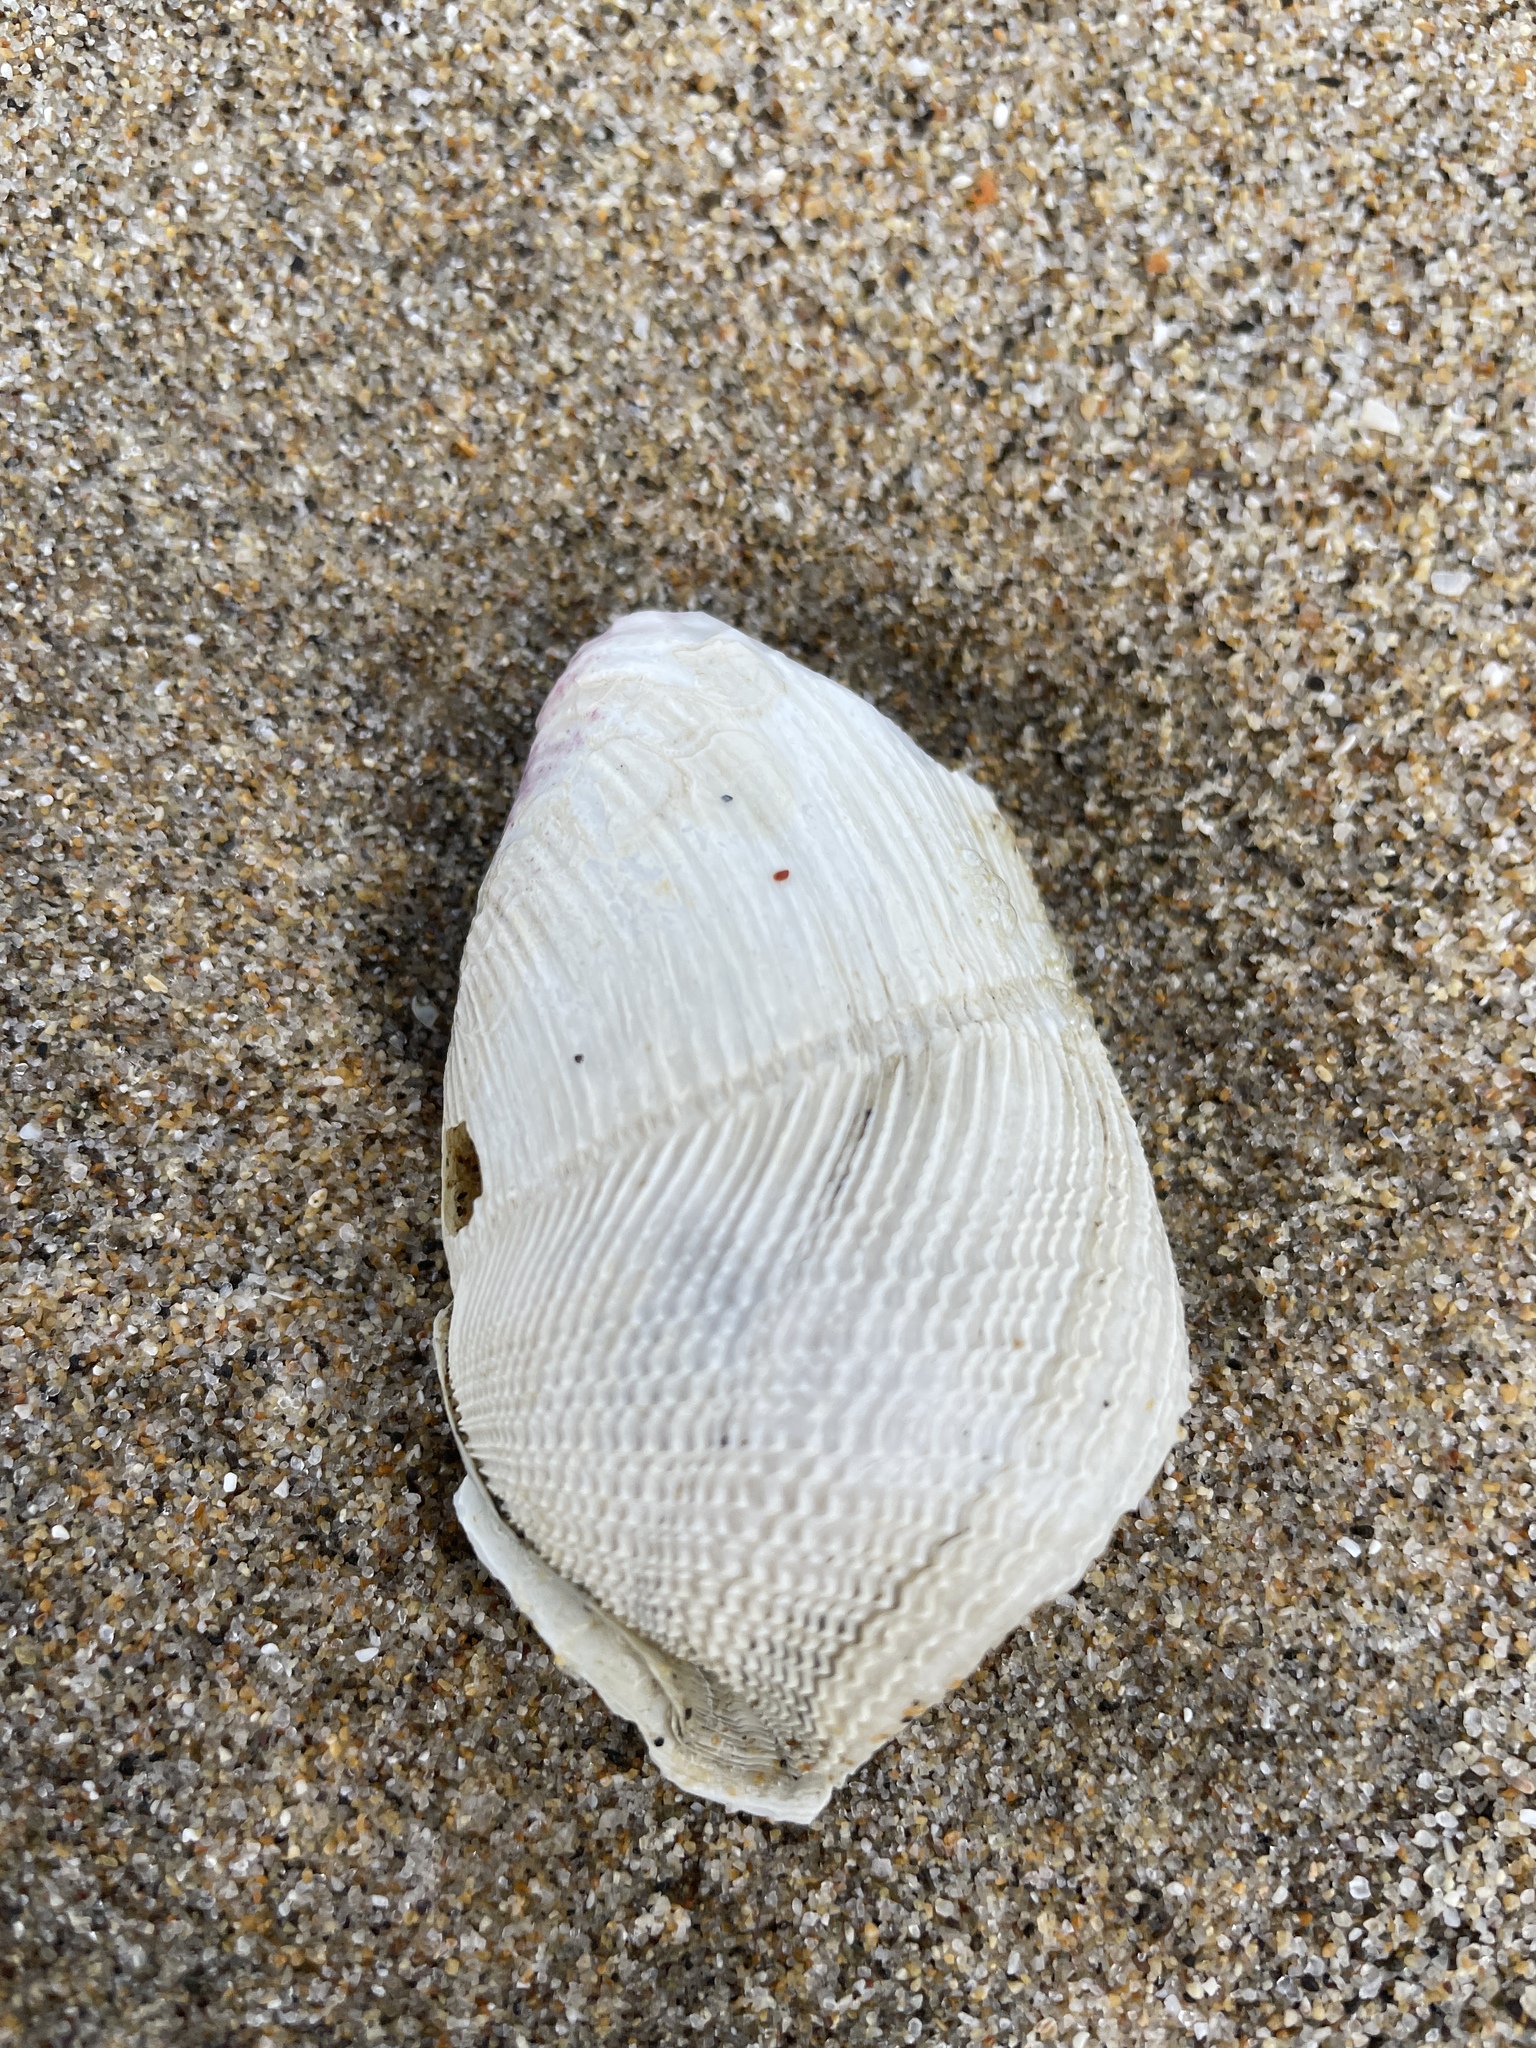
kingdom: Animalia
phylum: Mollusca
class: Bivalvia
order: Myida
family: Pholadidae
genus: Zirfaea
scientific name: Zirfaea pilsbryi
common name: Rough piddock
